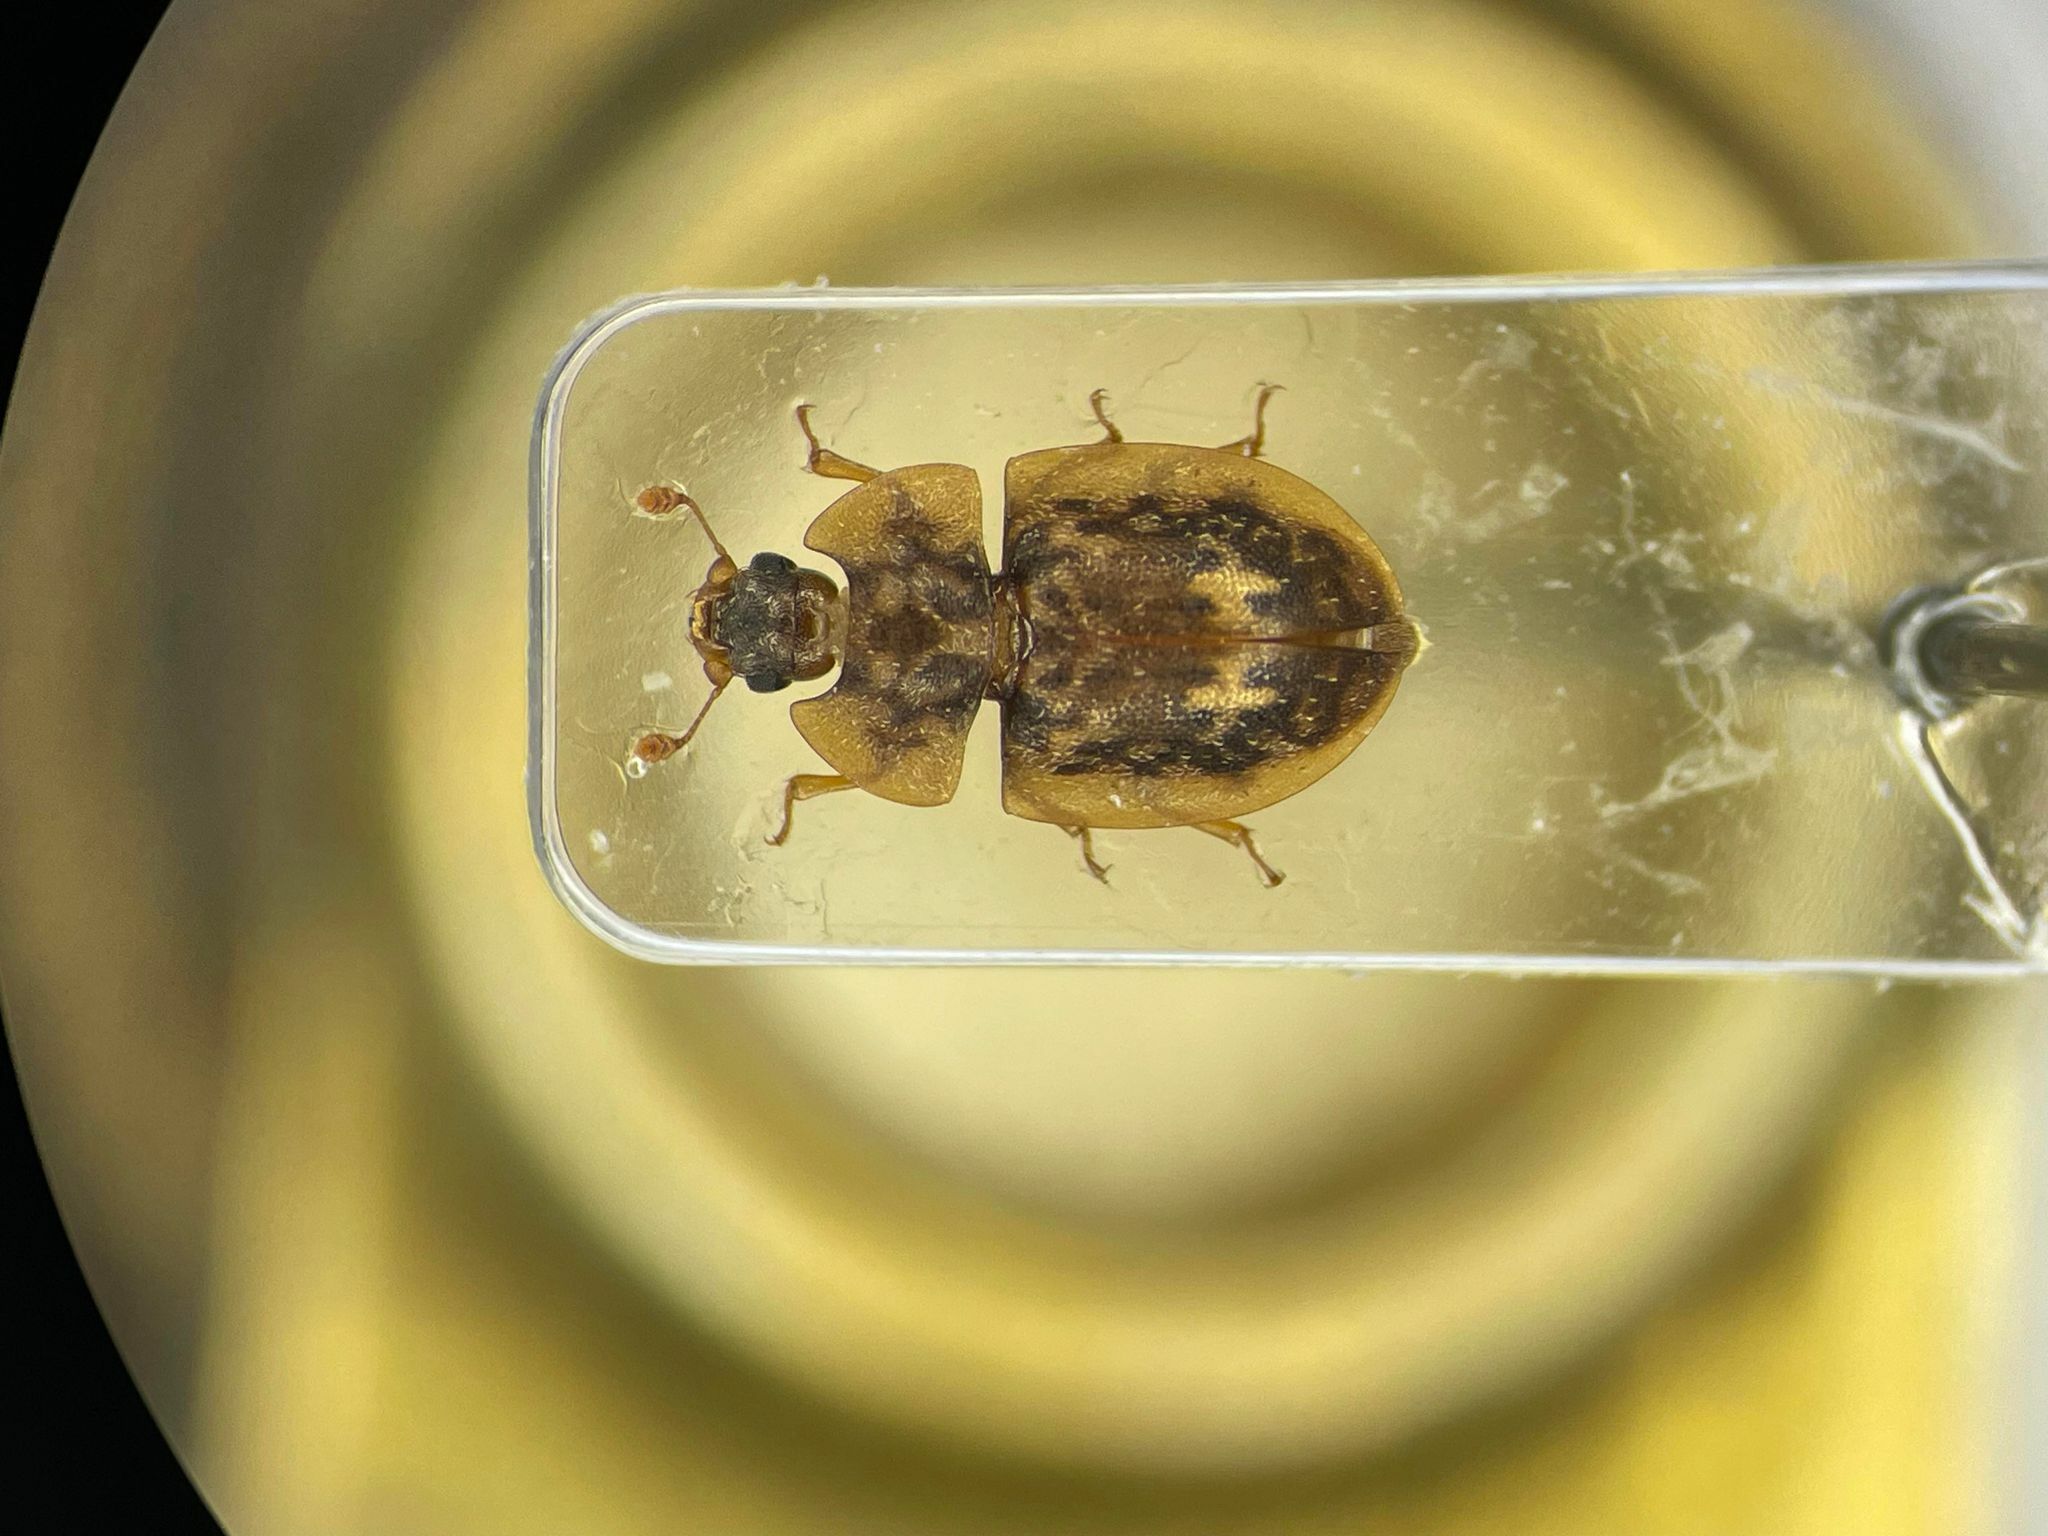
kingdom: Animalia
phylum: Arthropoda
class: Insecta
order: Coleoptera
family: Nitidulidae
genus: Lobiopa
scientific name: Lobiopa undulata
